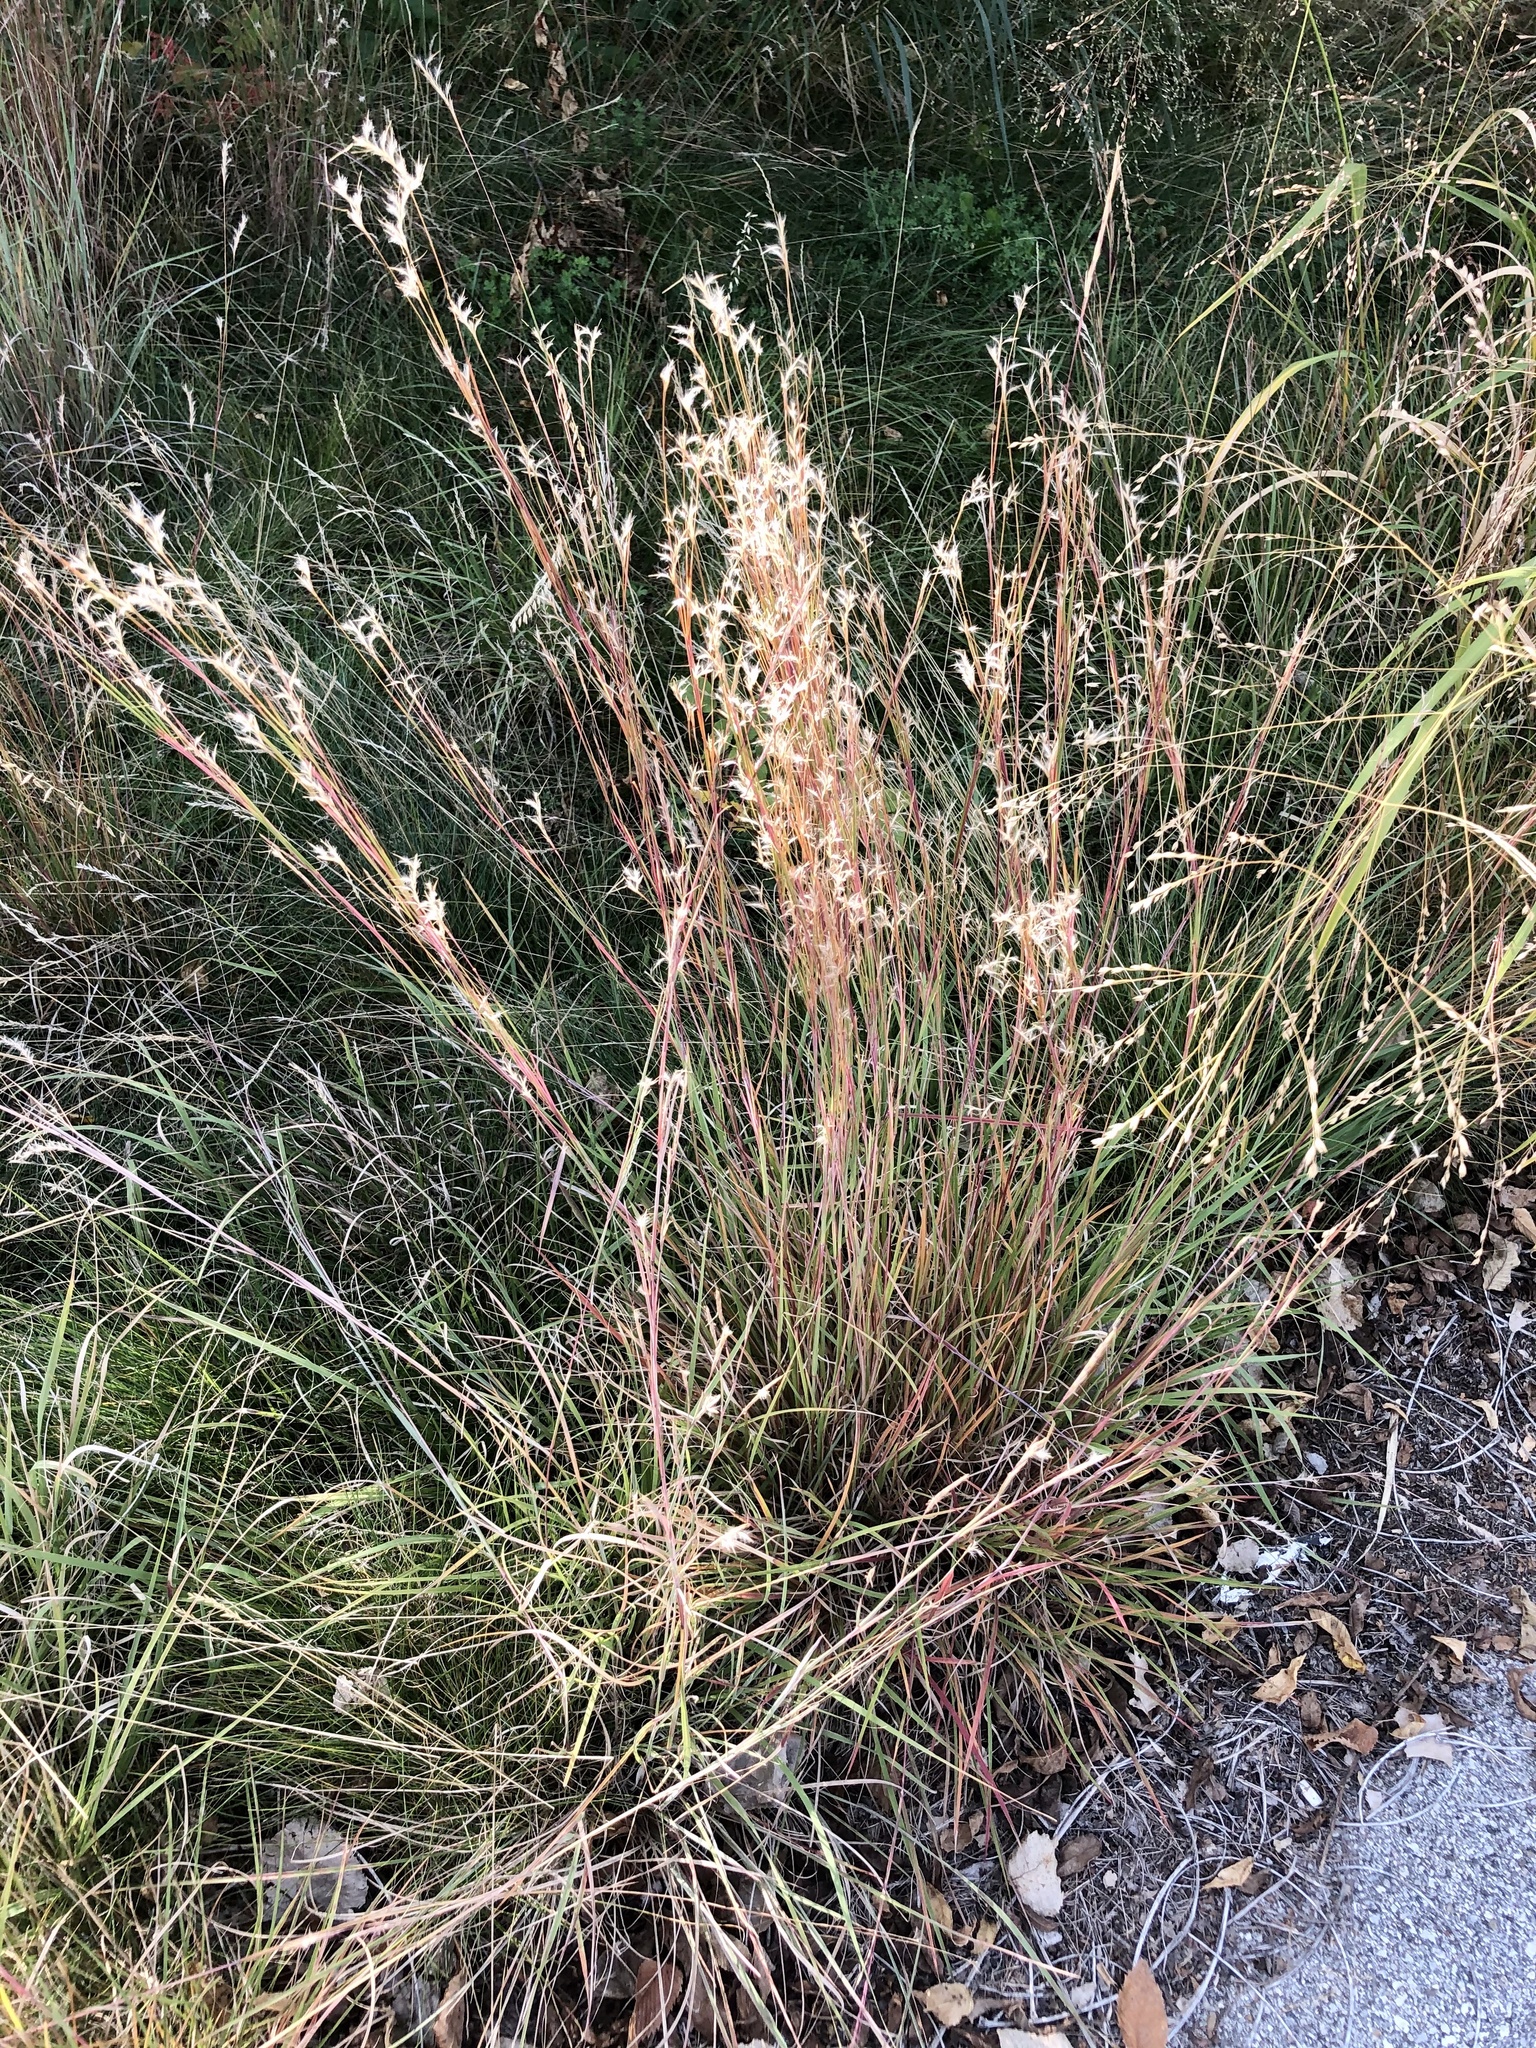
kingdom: Plantae
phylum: Tracheophyta
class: Liliopsida
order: Poales
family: Poaceae
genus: Schizachyrium
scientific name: Schizachyrium scoparium
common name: Little bluestem
